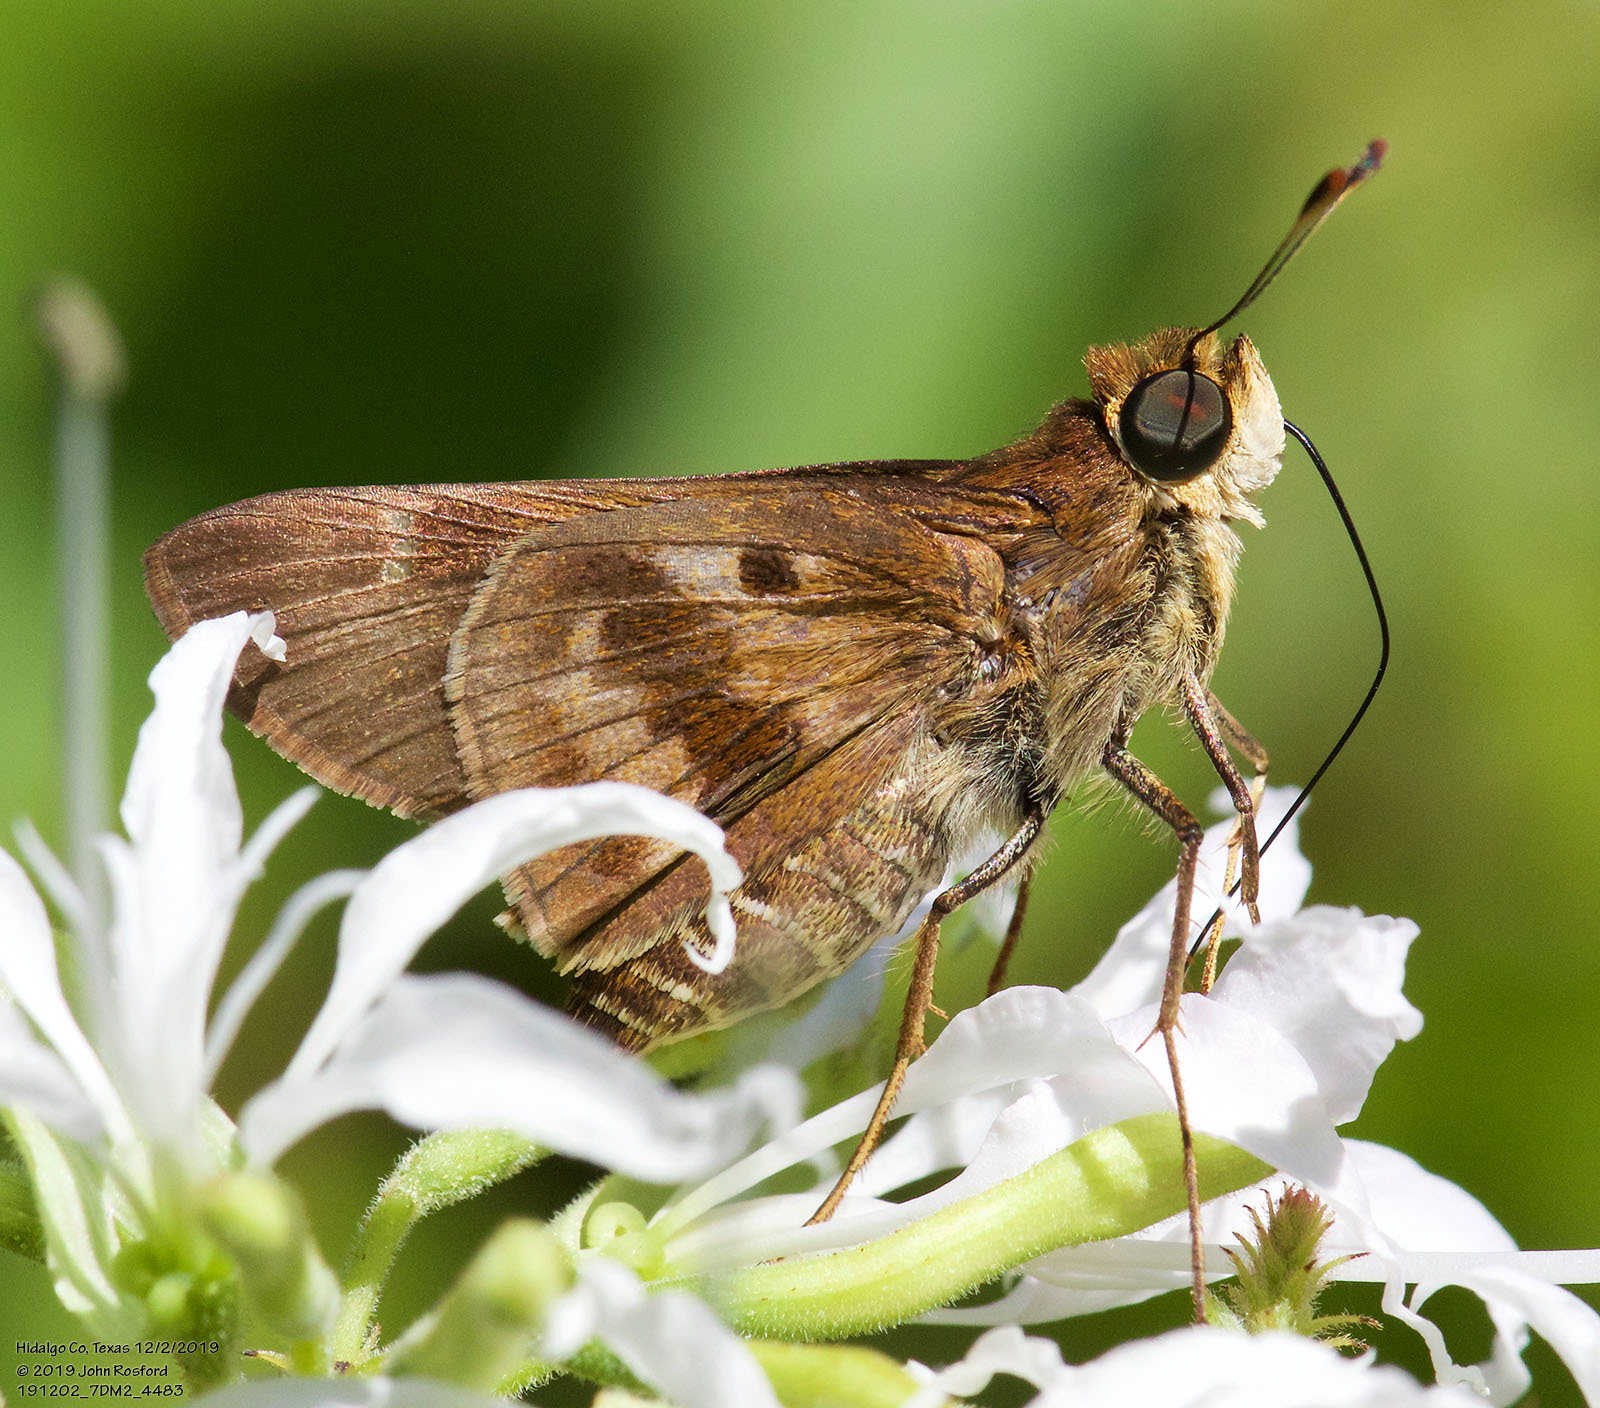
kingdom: Animalia
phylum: Arthropoda
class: Insecta
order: Lepidoptera
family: Hesperiidae
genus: Nyctelius
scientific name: Nyctelius nyctelius
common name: Violet-banded skipper
